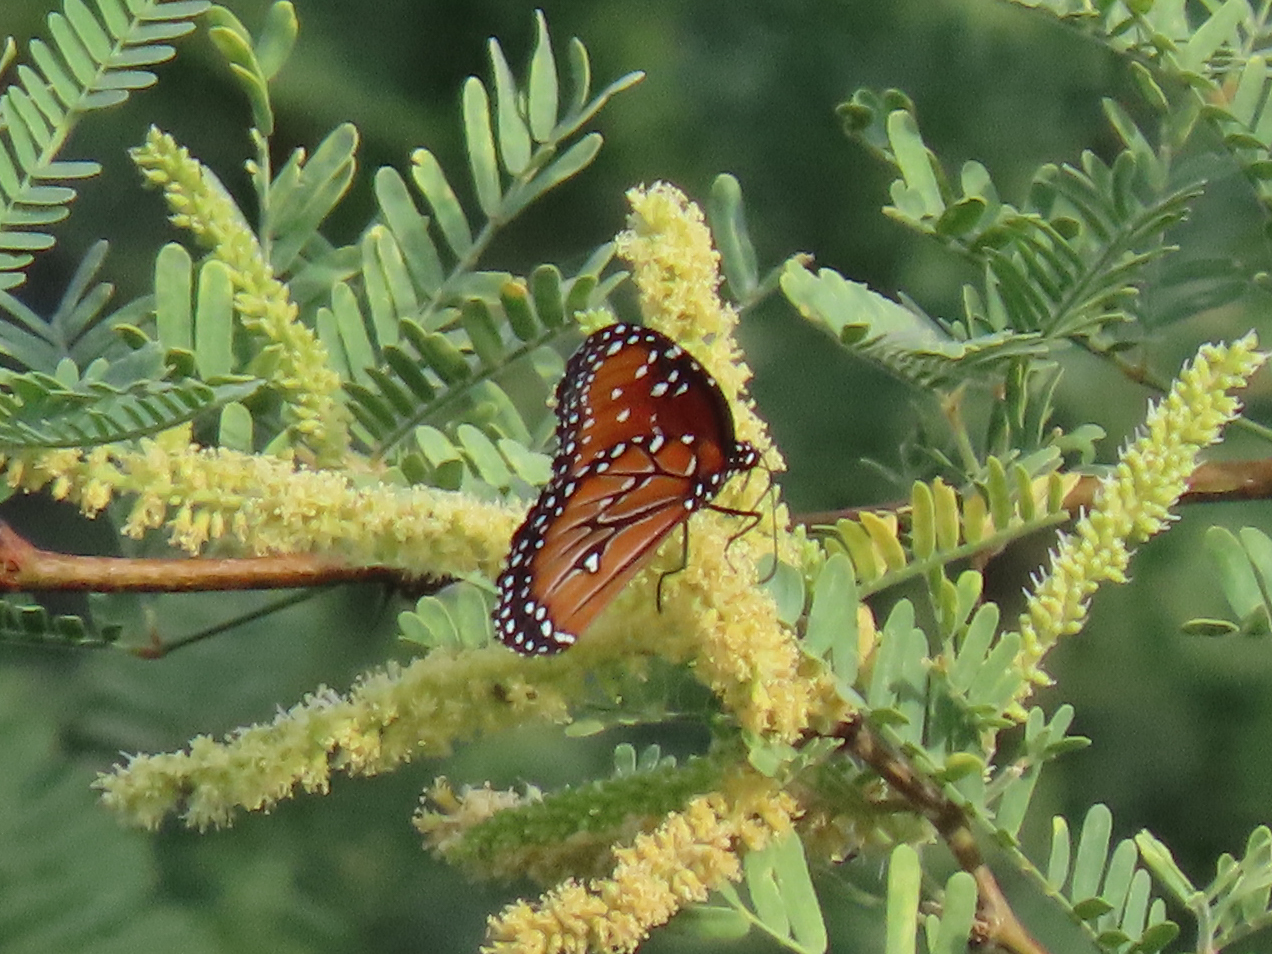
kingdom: Animalia
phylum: Arthropoda
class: Insecta
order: Lepidoptera
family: Nymphalidae
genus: Danaus
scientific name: Danaus gilippus
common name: Queen
